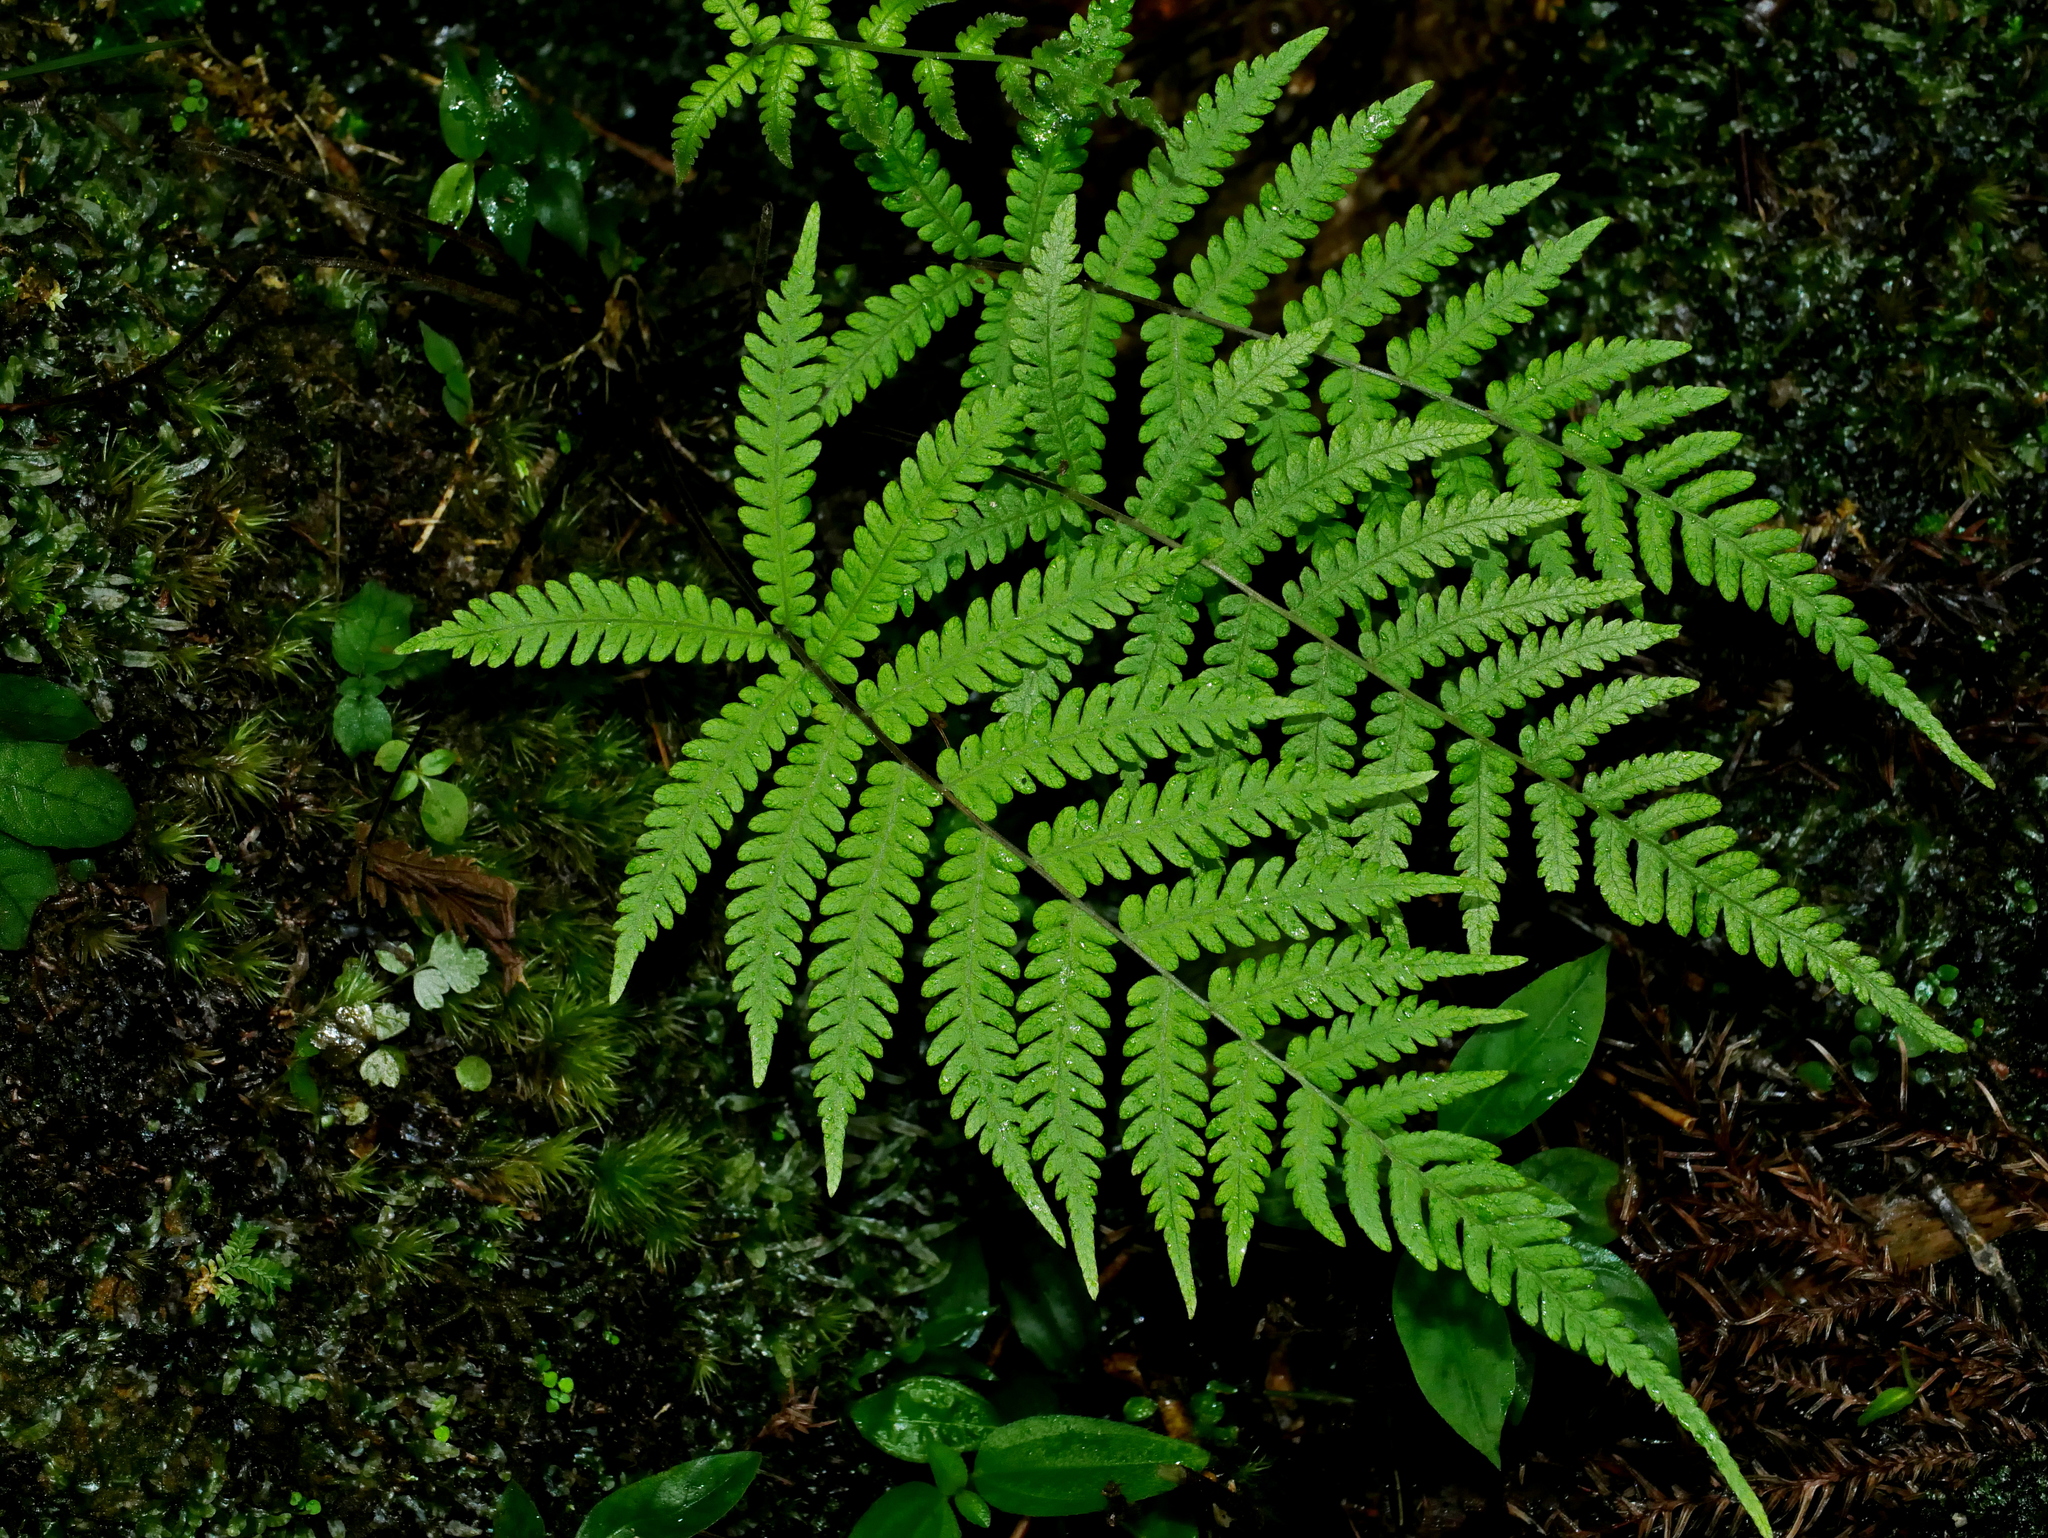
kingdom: Plantae
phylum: Tracheophyta
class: Polypodiopsida
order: Polypodiales
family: Thelypteridaceae
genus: Coryphopteris
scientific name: Coryphopteris castanea
